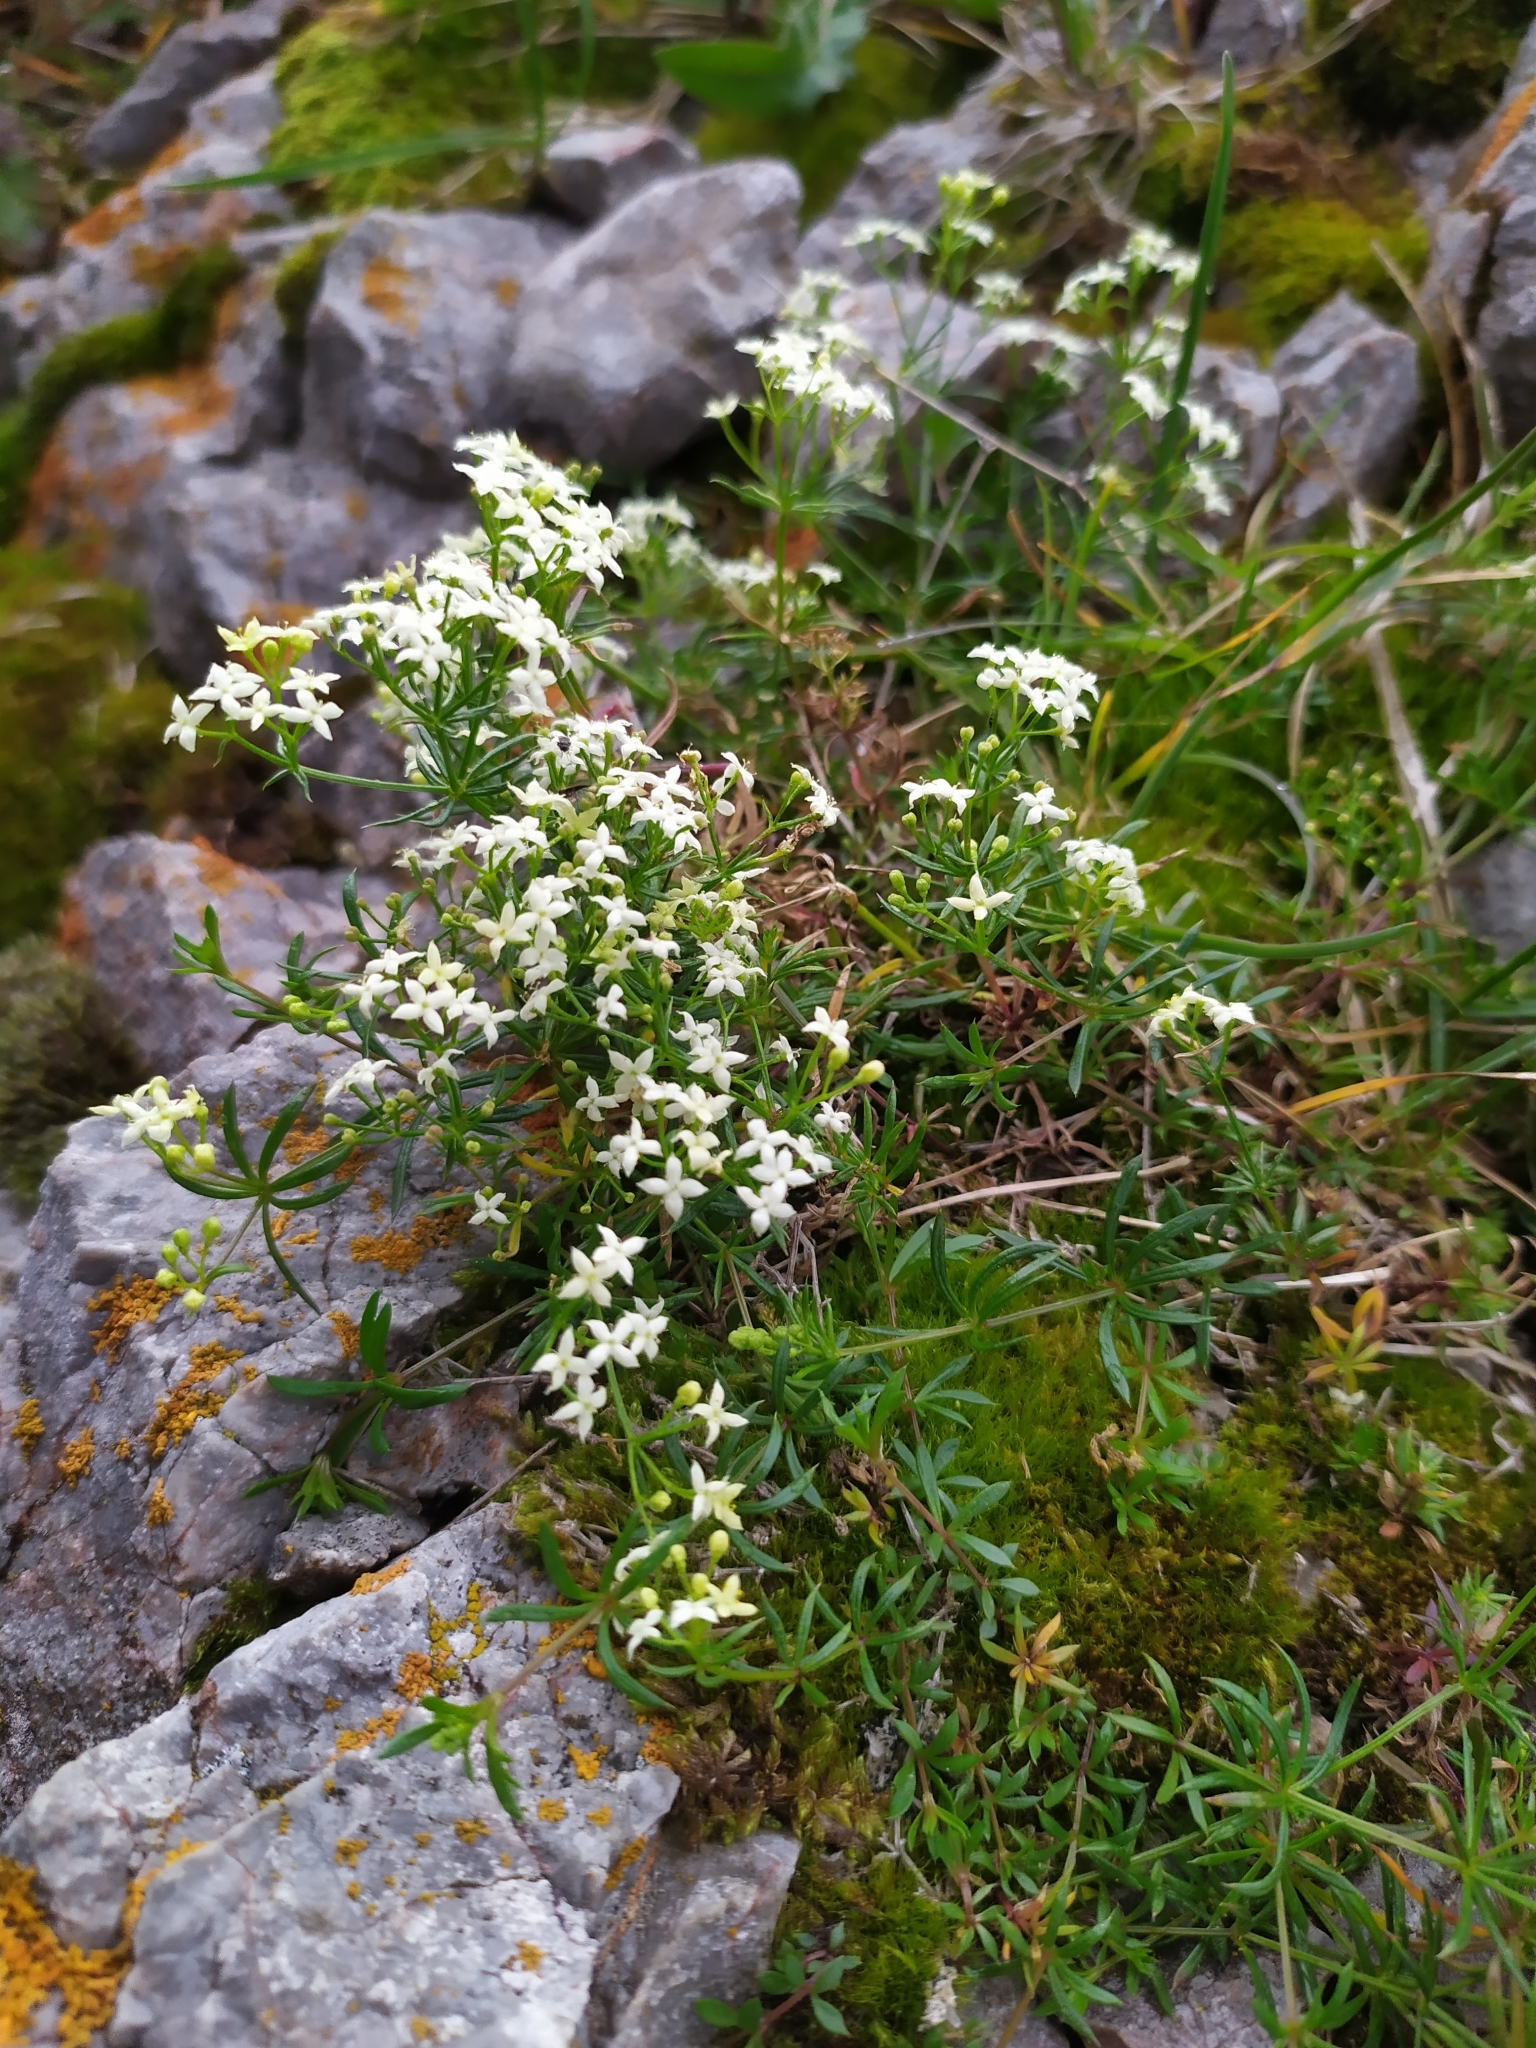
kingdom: Plantae
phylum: Tracheophyta
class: Magnoliopsida
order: Gentianales
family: Rubiaceae
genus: Galium
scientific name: Galium anisophyllon
